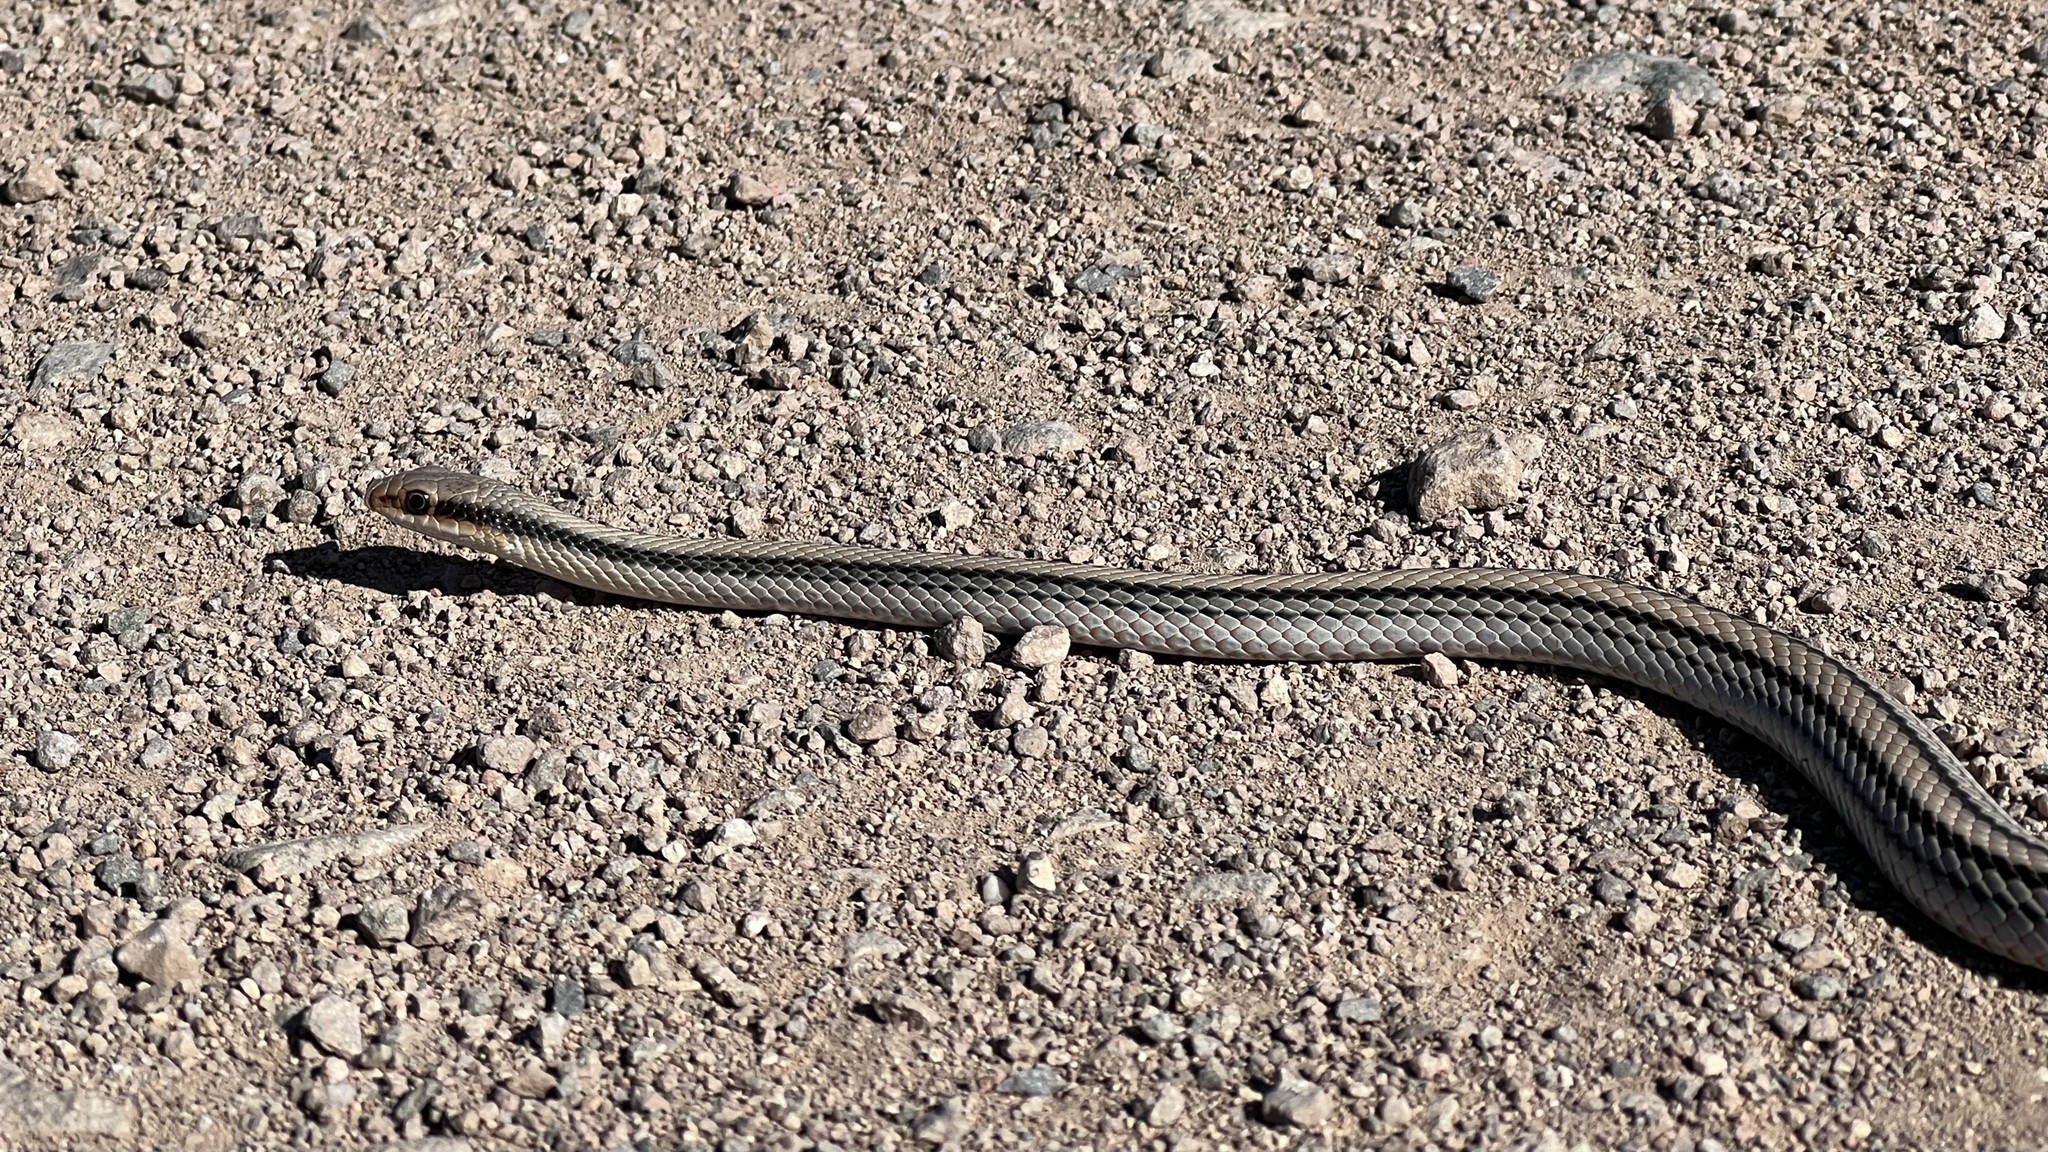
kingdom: Animalia
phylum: Chordata
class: Squamata
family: Colubridae
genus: Salvadora
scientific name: Salvadora hexalepis
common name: Western patchnose snake
